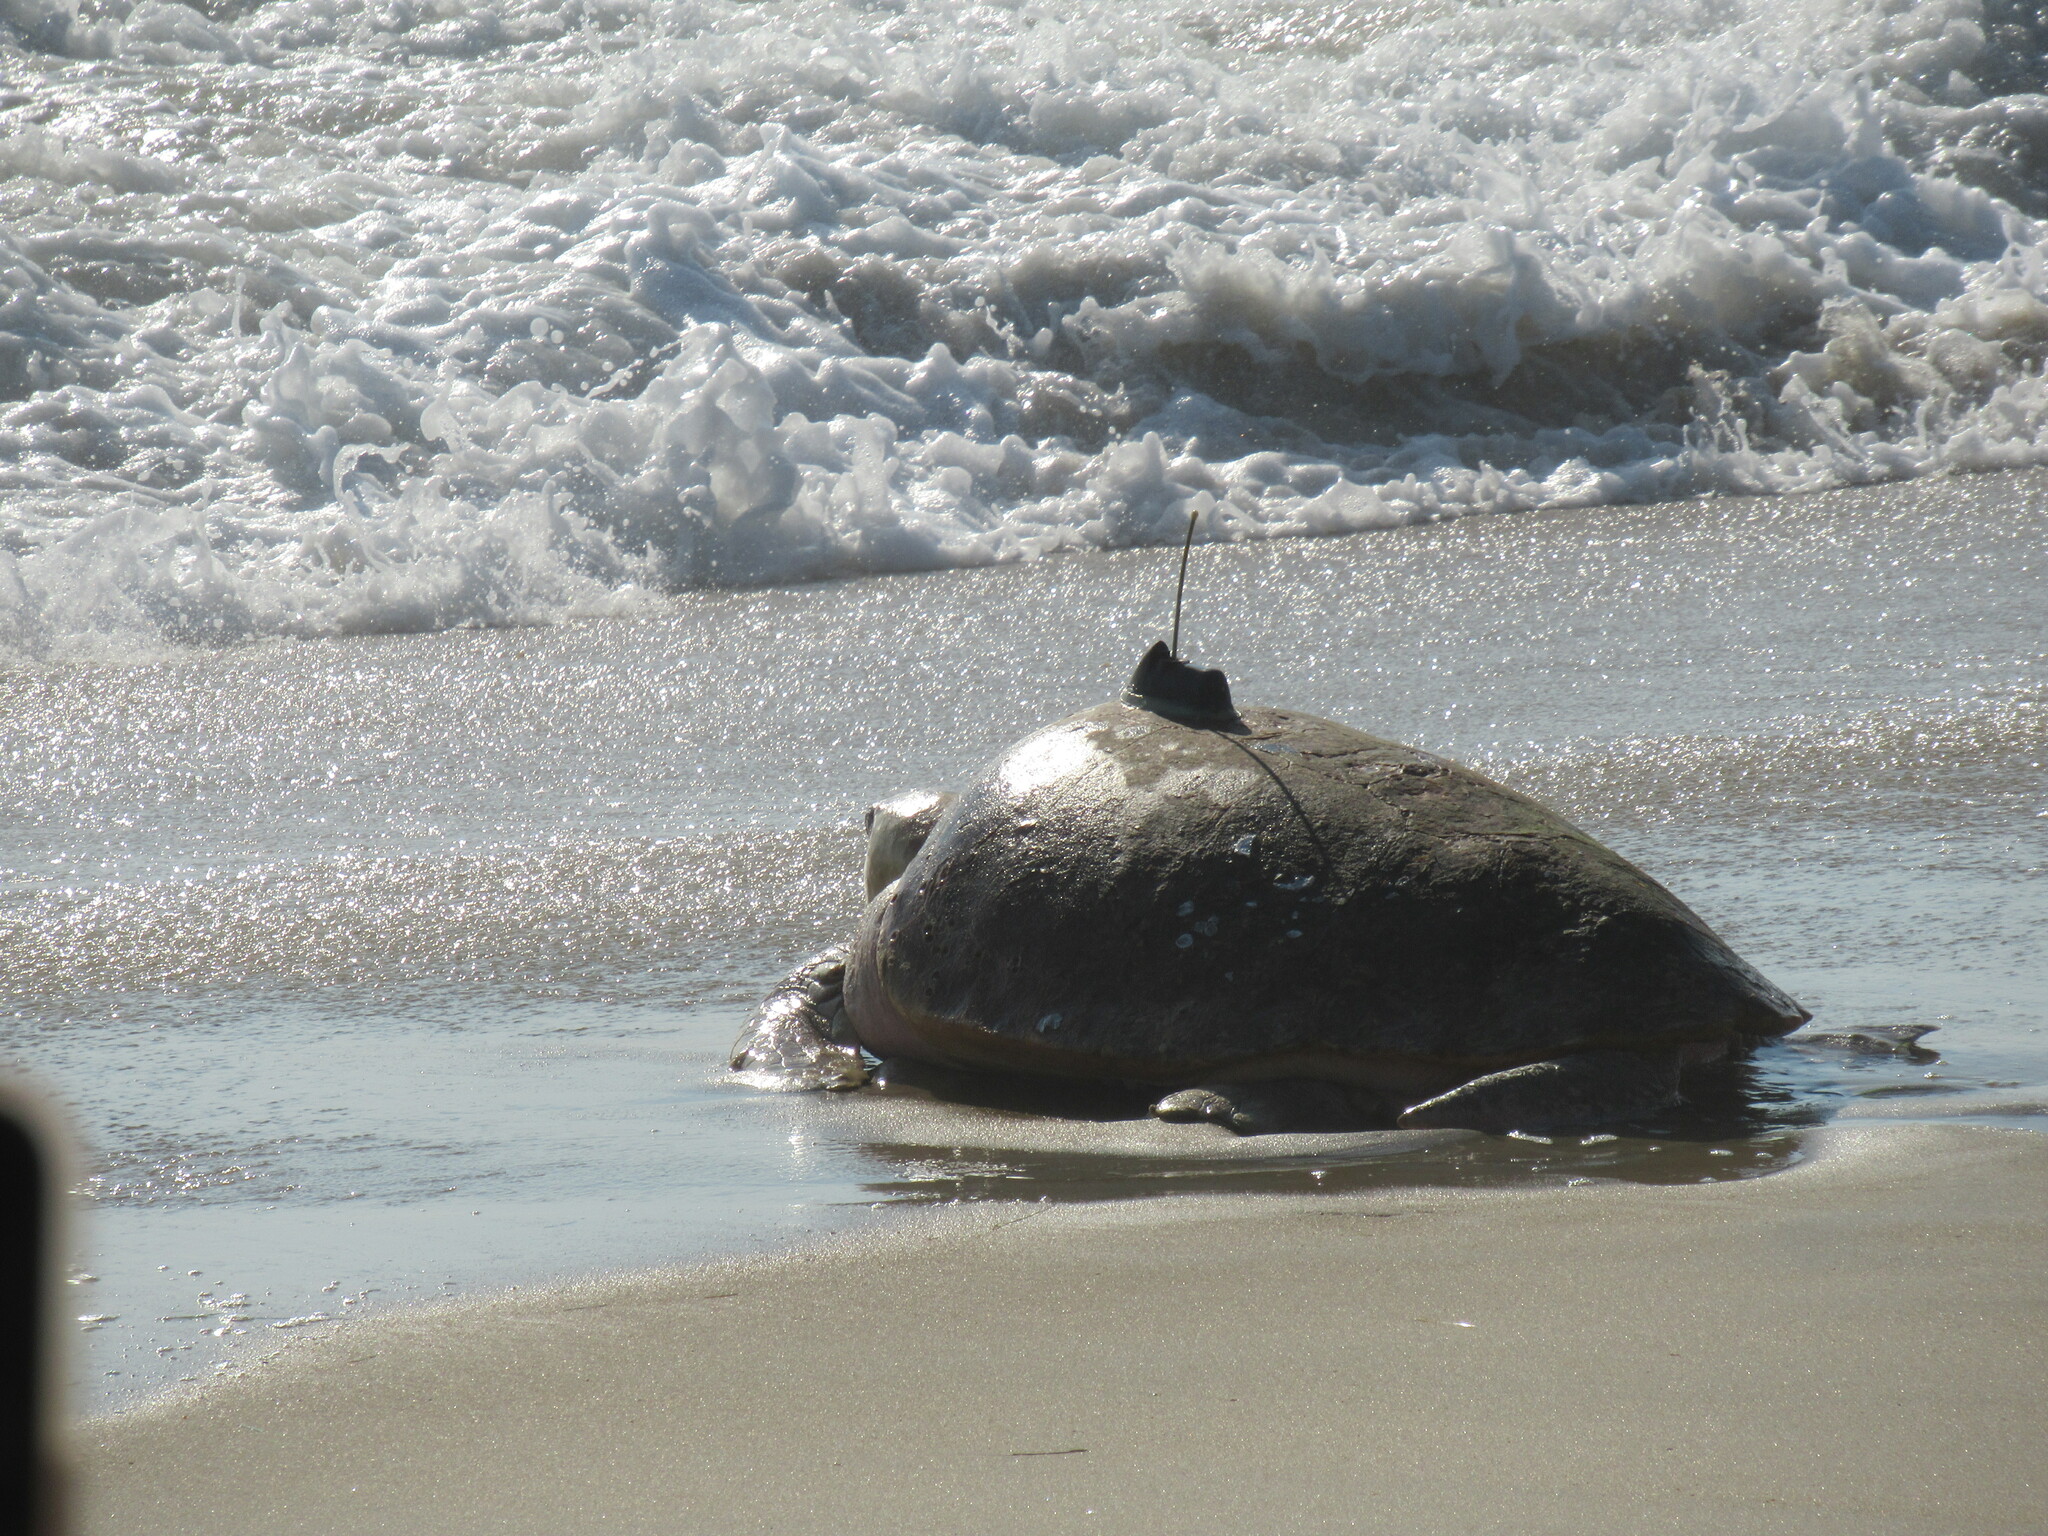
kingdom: Animalia
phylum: Chordata
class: Testudines
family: Cheloniidae
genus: Caretta
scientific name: Caretta caretta
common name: Loggerhead sea turtle
